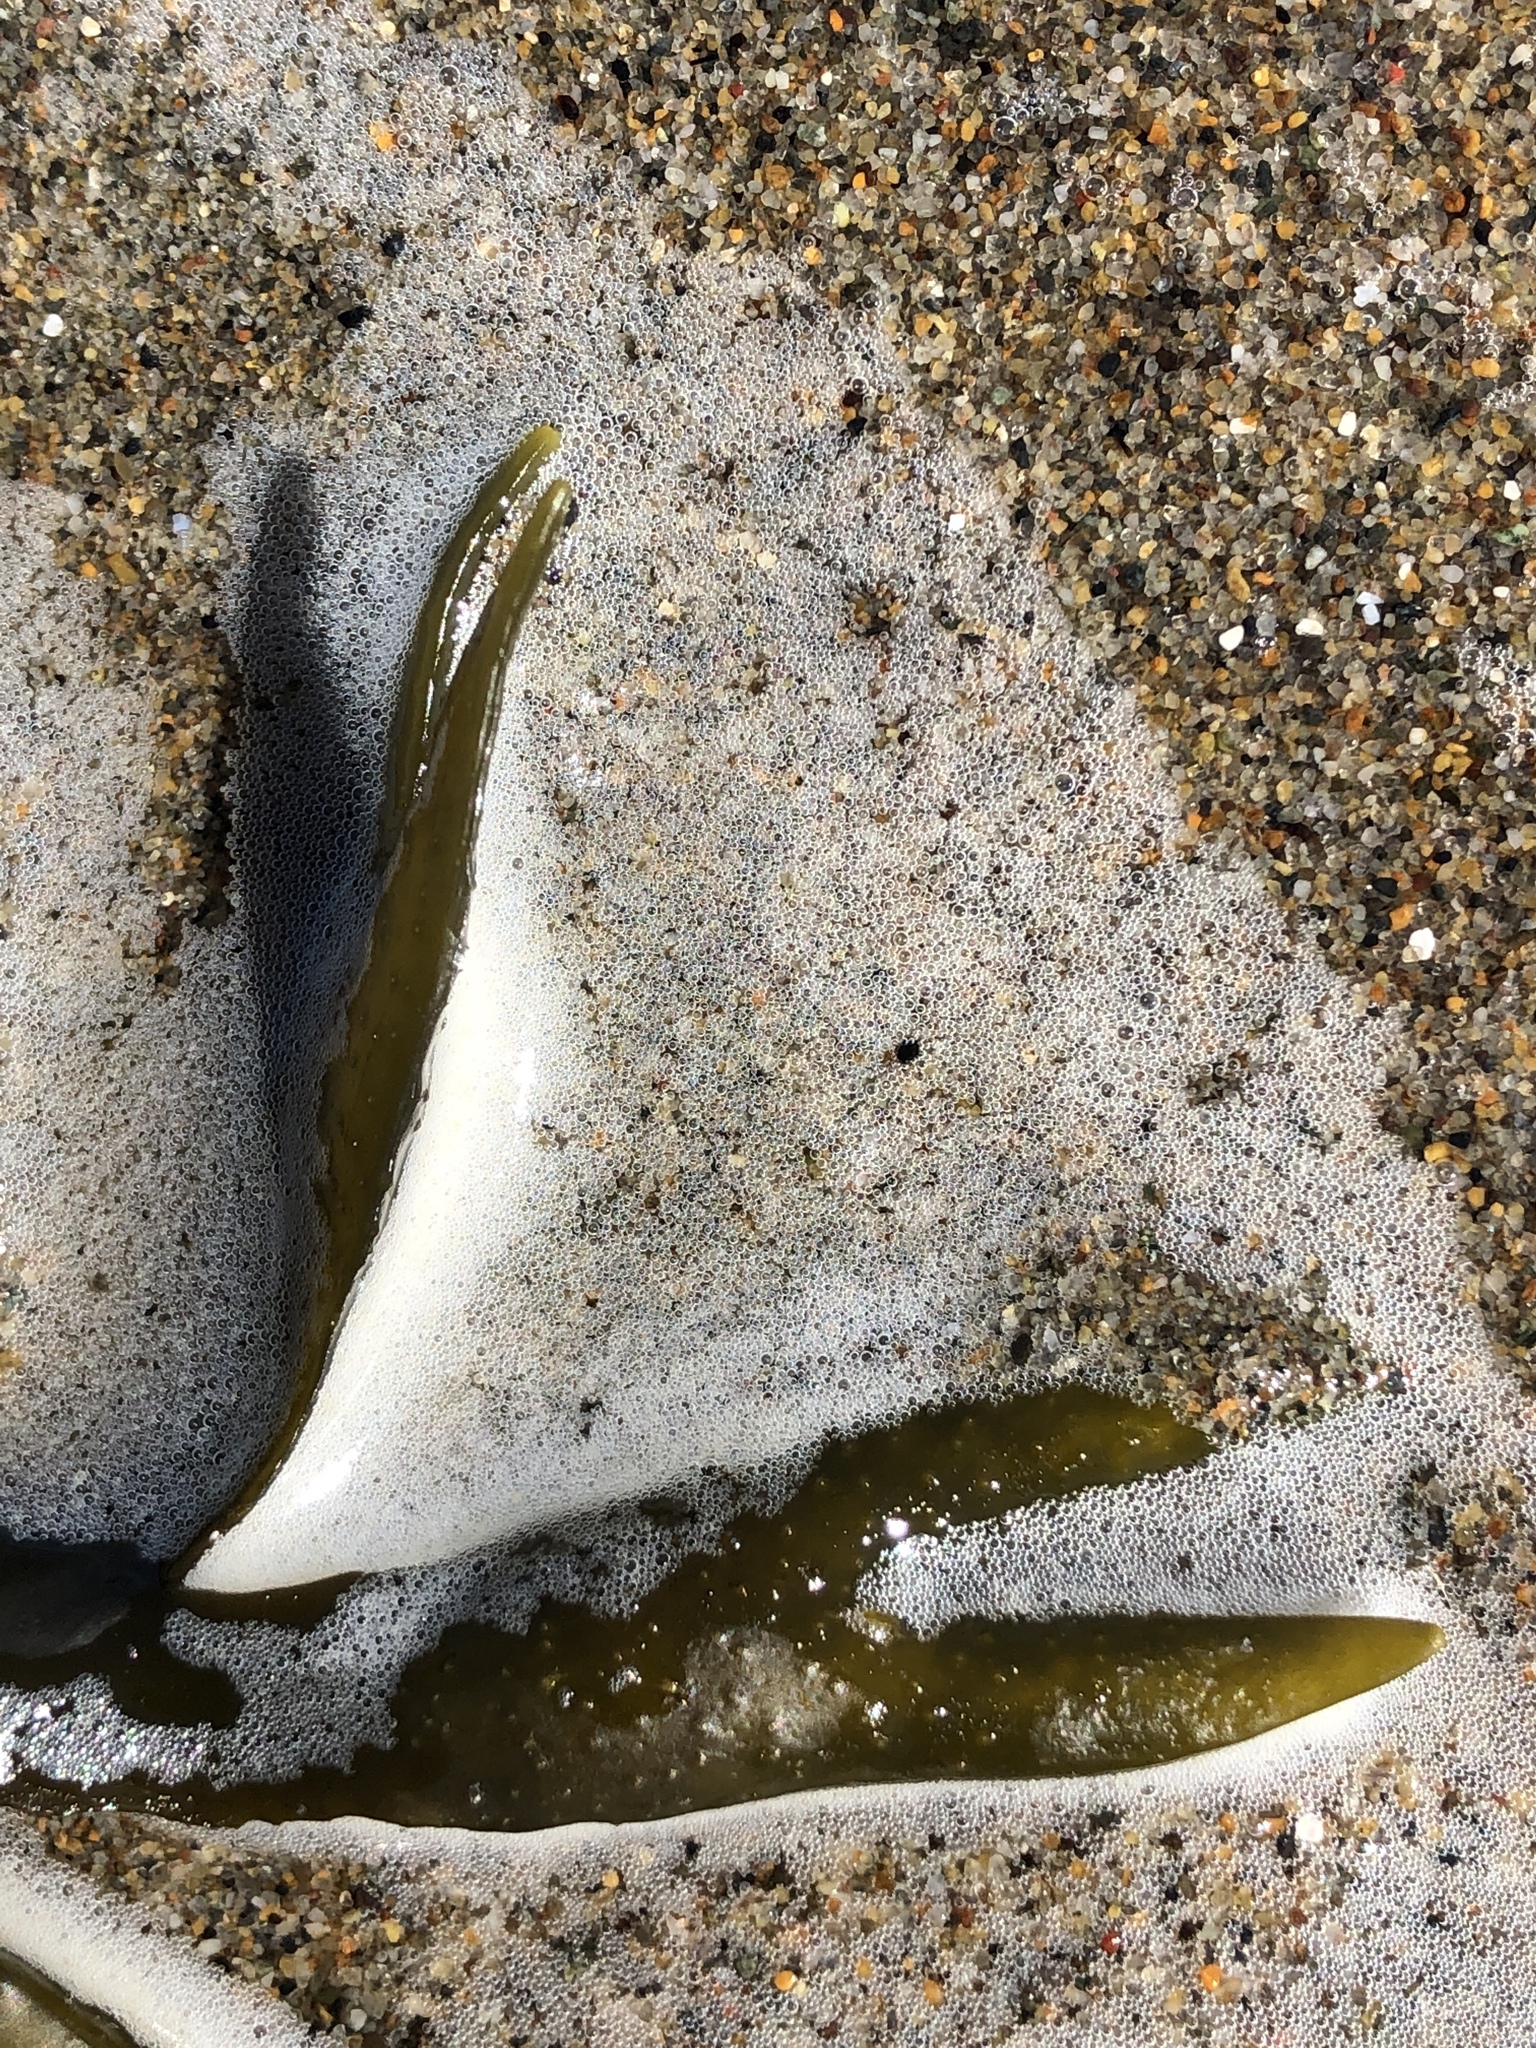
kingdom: Chromista
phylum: Ochrophyta
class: Phaeophyceae
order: Fucales
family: Fucaceae
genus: Fucus
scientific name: Fucus distichus
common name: Rockweed
